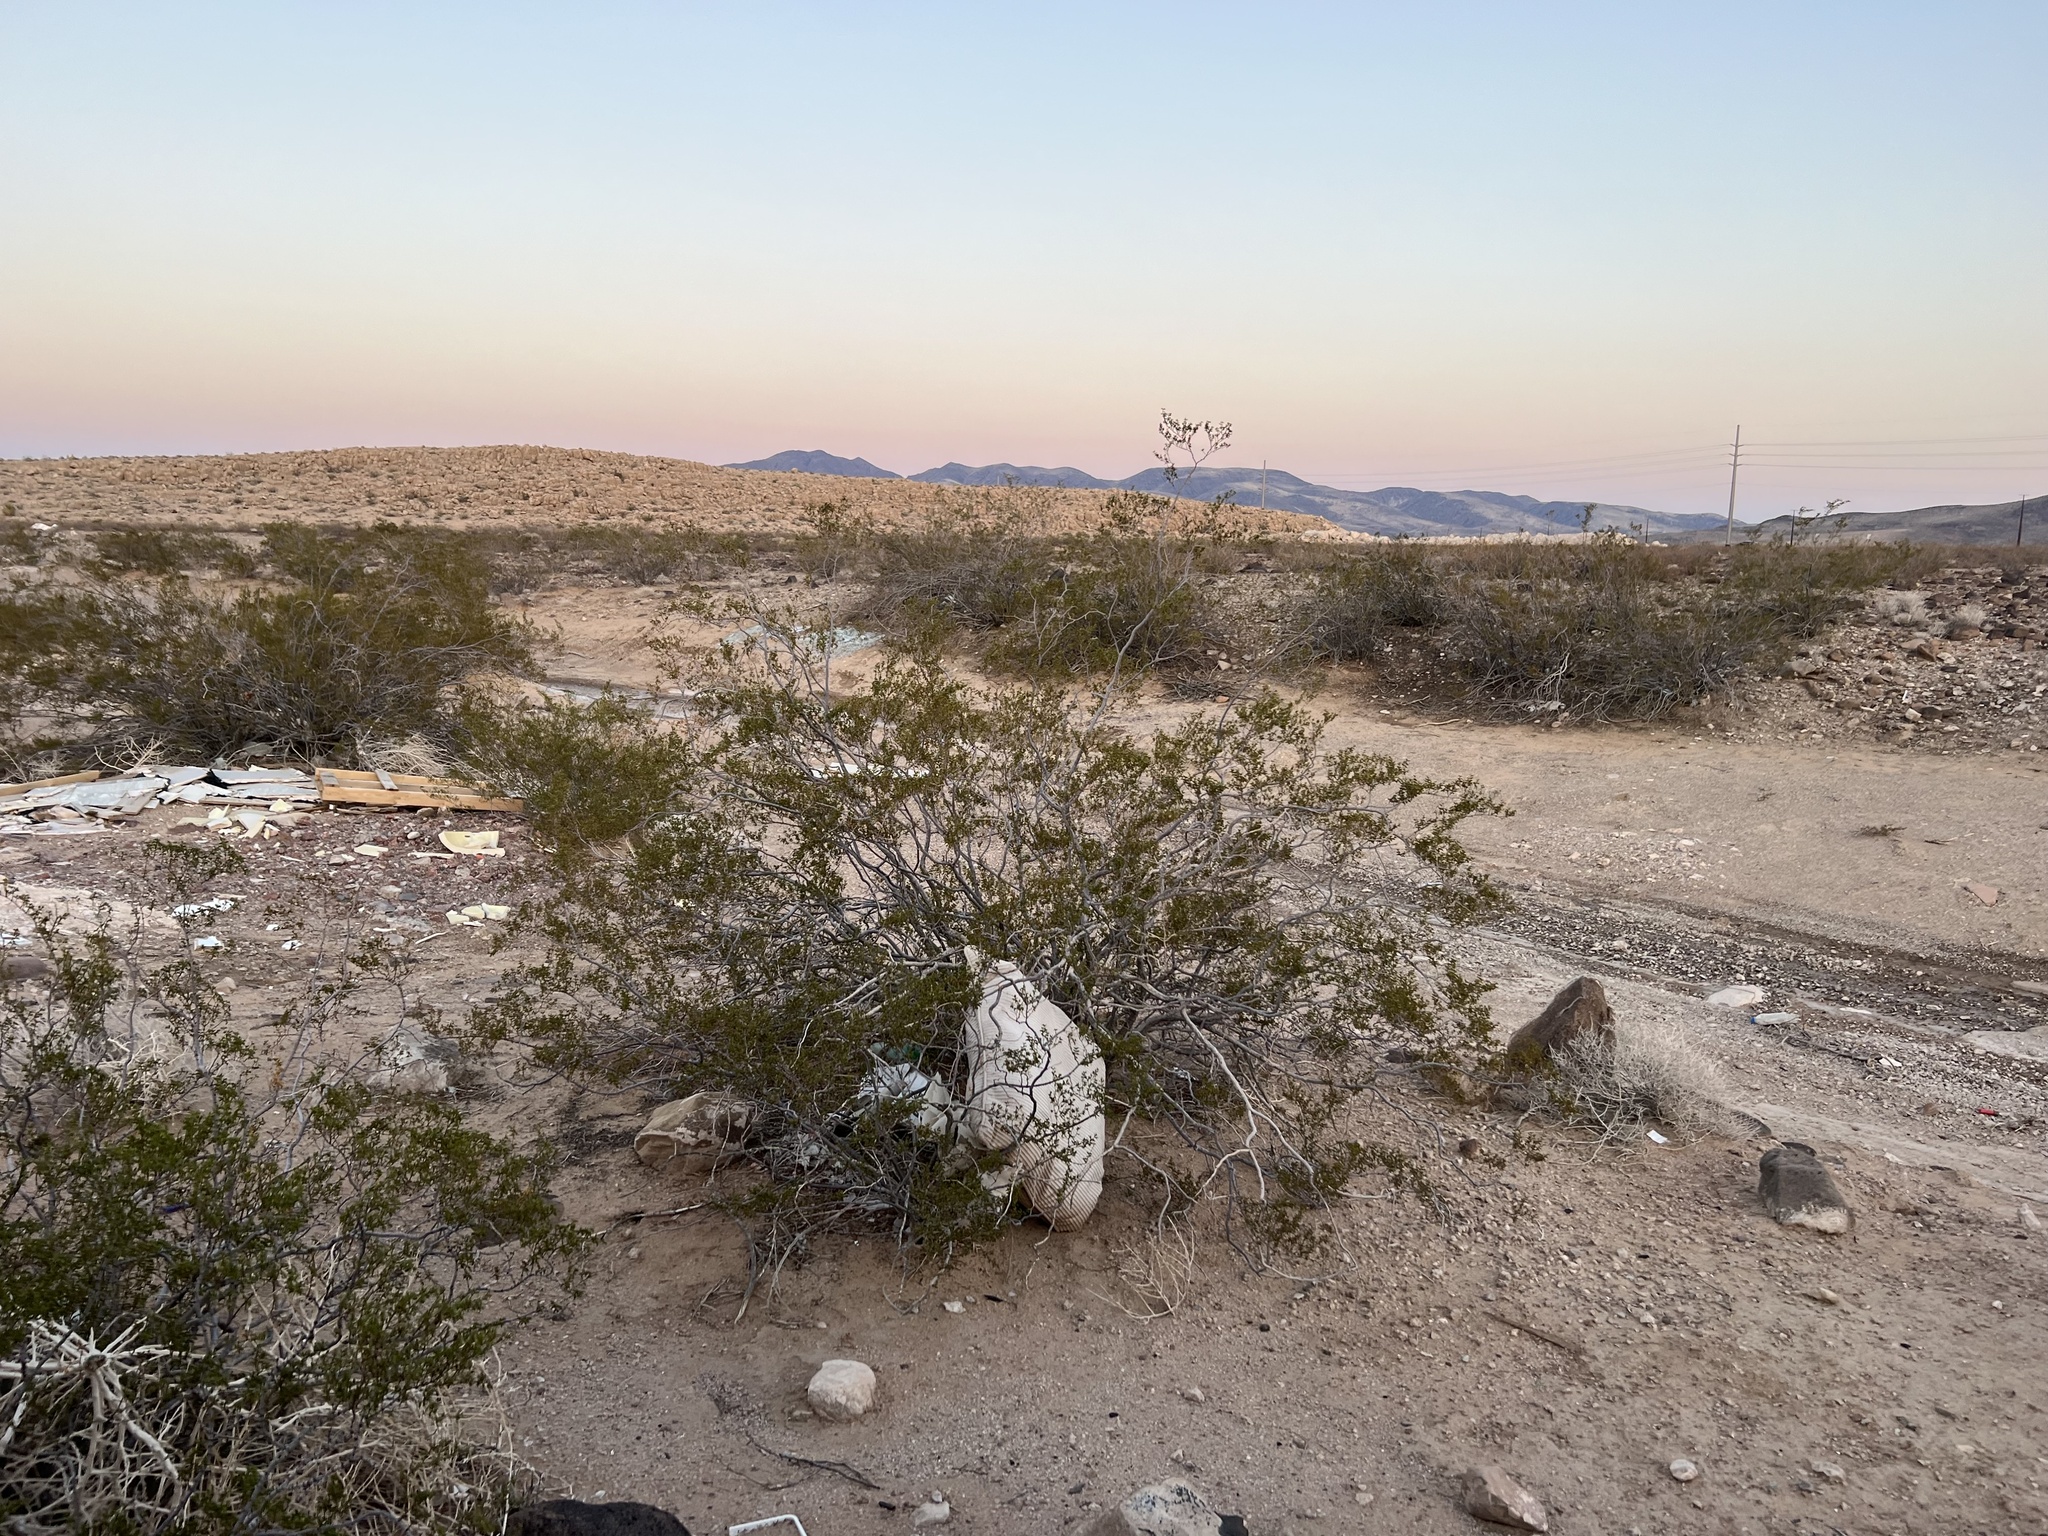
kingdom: Plantae
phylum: Tracheophyta
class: Magnoliopsida
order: Zygophyllales
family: Zygophyllaceae
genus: Larrea
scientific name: Larrea tridentata
